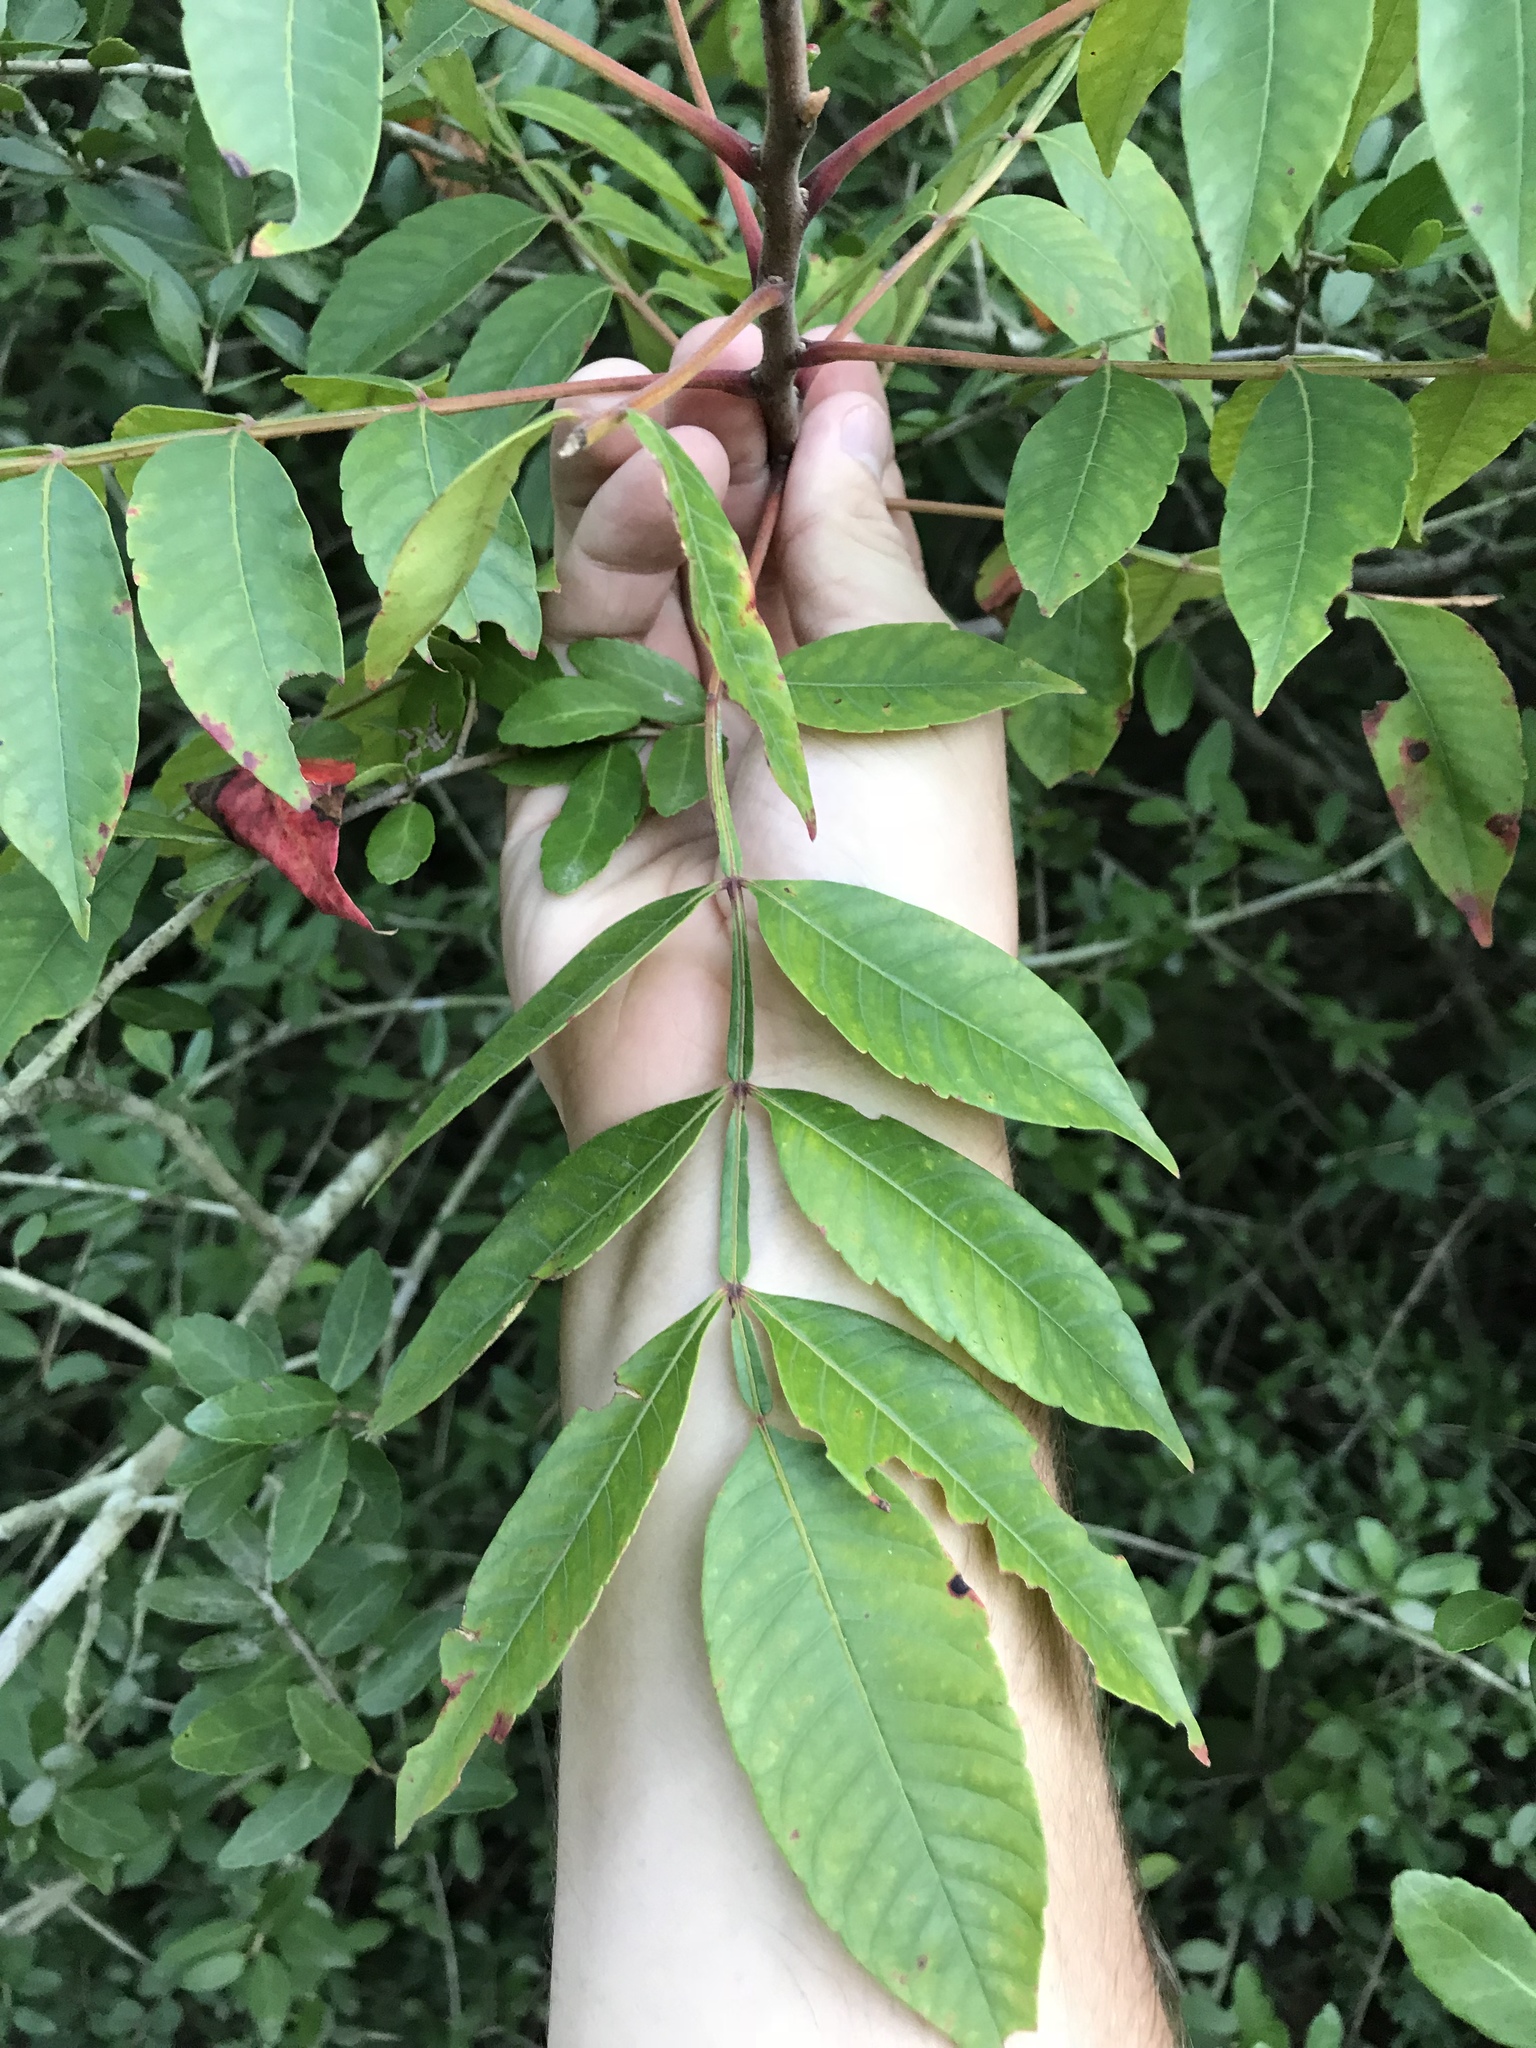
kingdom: Plantae
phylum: Tracheophyta
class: Magnoliopsida
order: Sapindales
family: Anacardiaceae
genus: Rhus
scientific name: Rhus copallina
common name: Shining sumac
